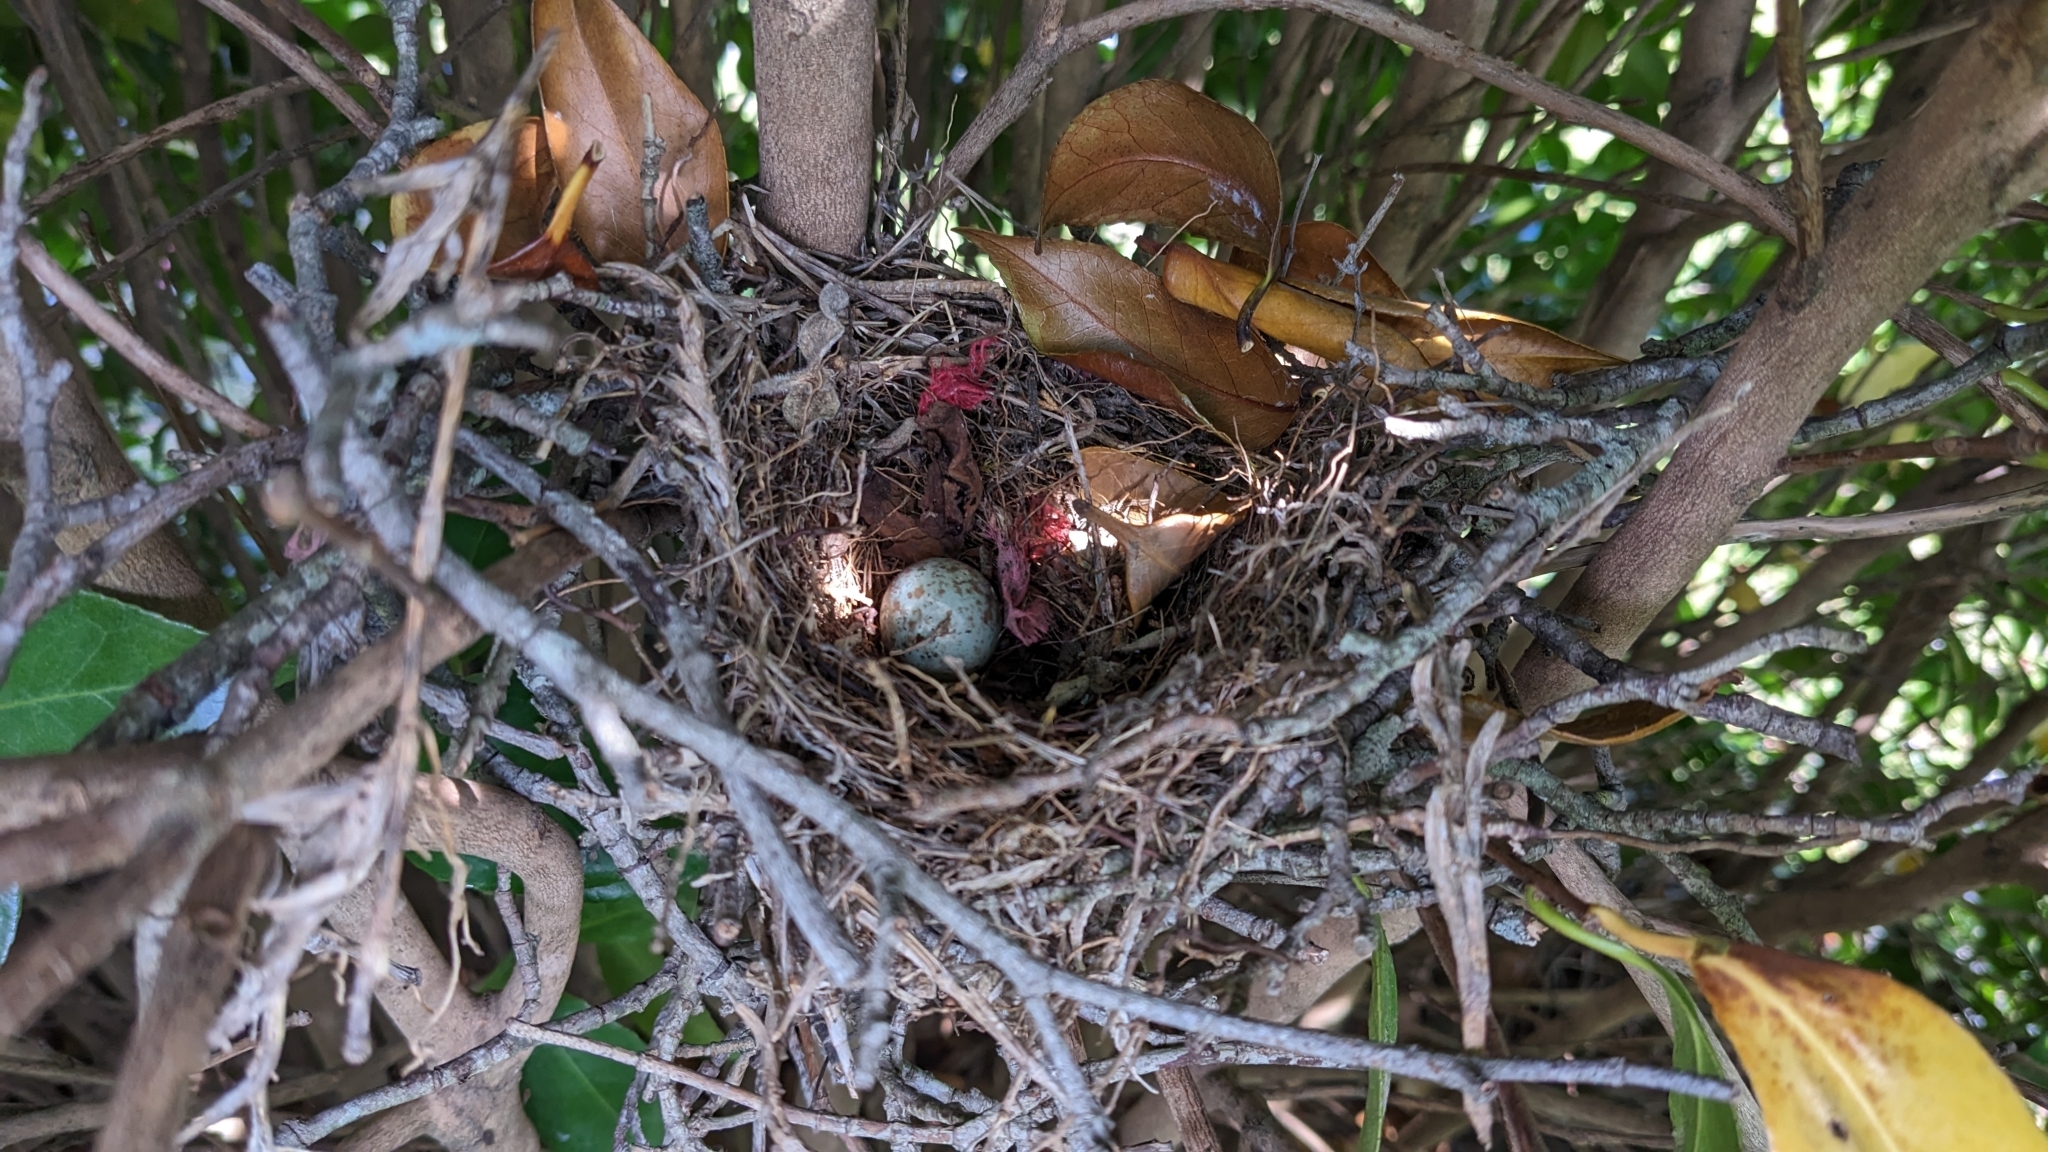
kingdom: Animalia
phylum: Chordata
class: Aves
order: Passeriformes
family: Mimidae
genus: Mimus
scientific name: Mimus polyglottos
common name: Northern mockingbird
